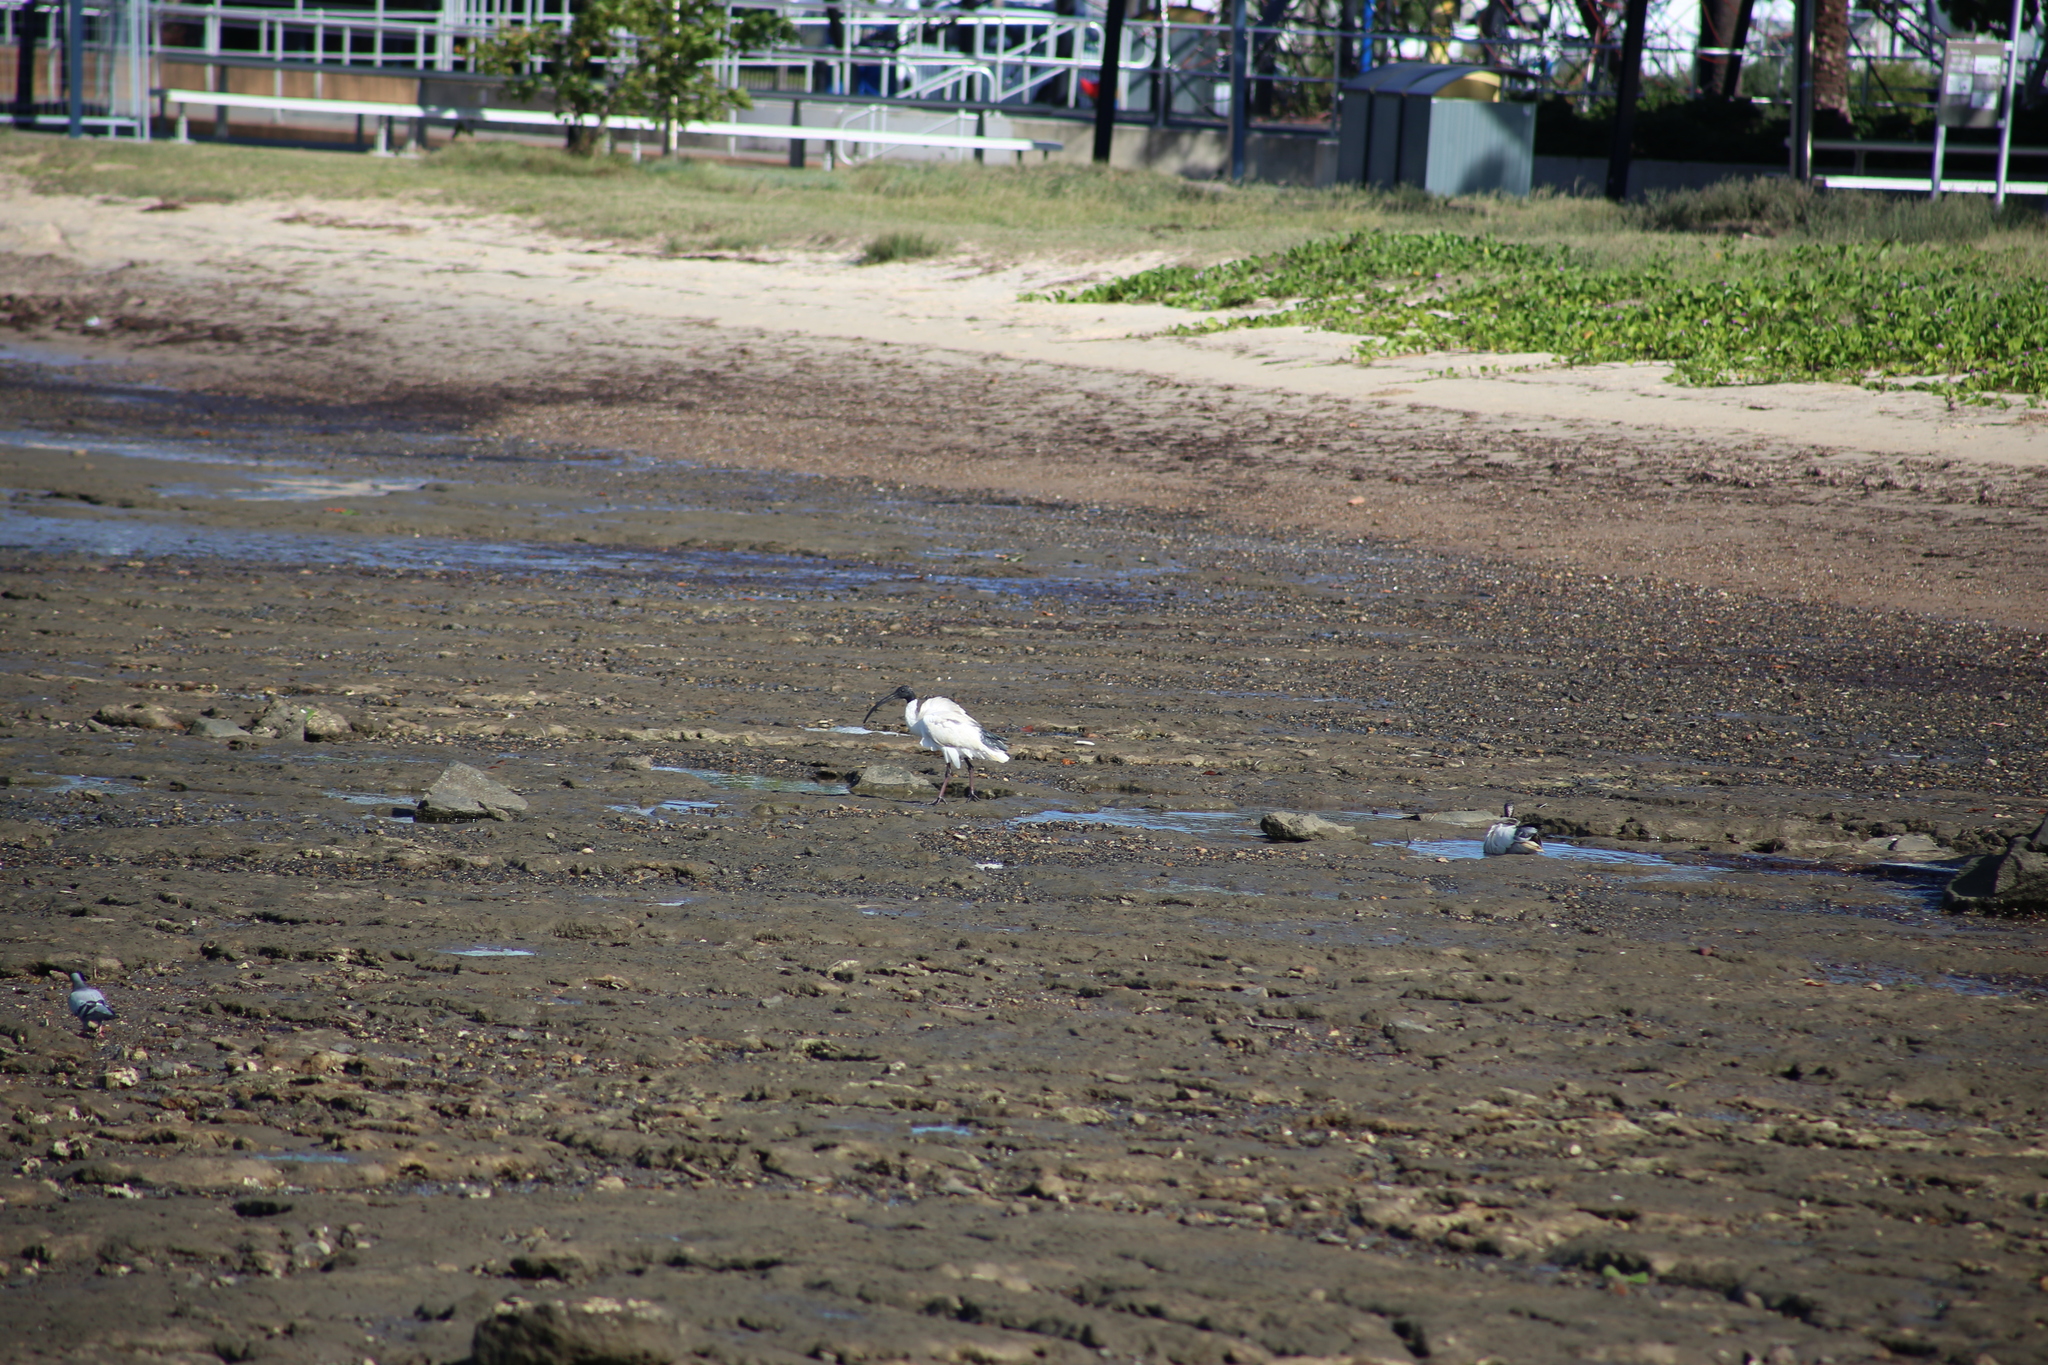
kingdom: Animalia
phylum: Chordata
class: Aves
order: Columbiformes
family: Columbidae
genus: Columba
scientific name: Columba livia
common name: Rock pigeon
